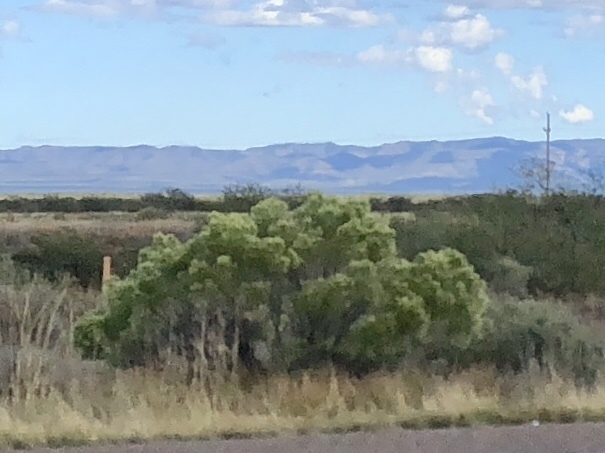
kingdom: Plantae
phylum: Tracheophyta
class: Magnoliopsida
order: Asterales
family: Asteraceae
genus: Baccharis
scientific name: Baccharis sarothroides
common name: Desert-broom
